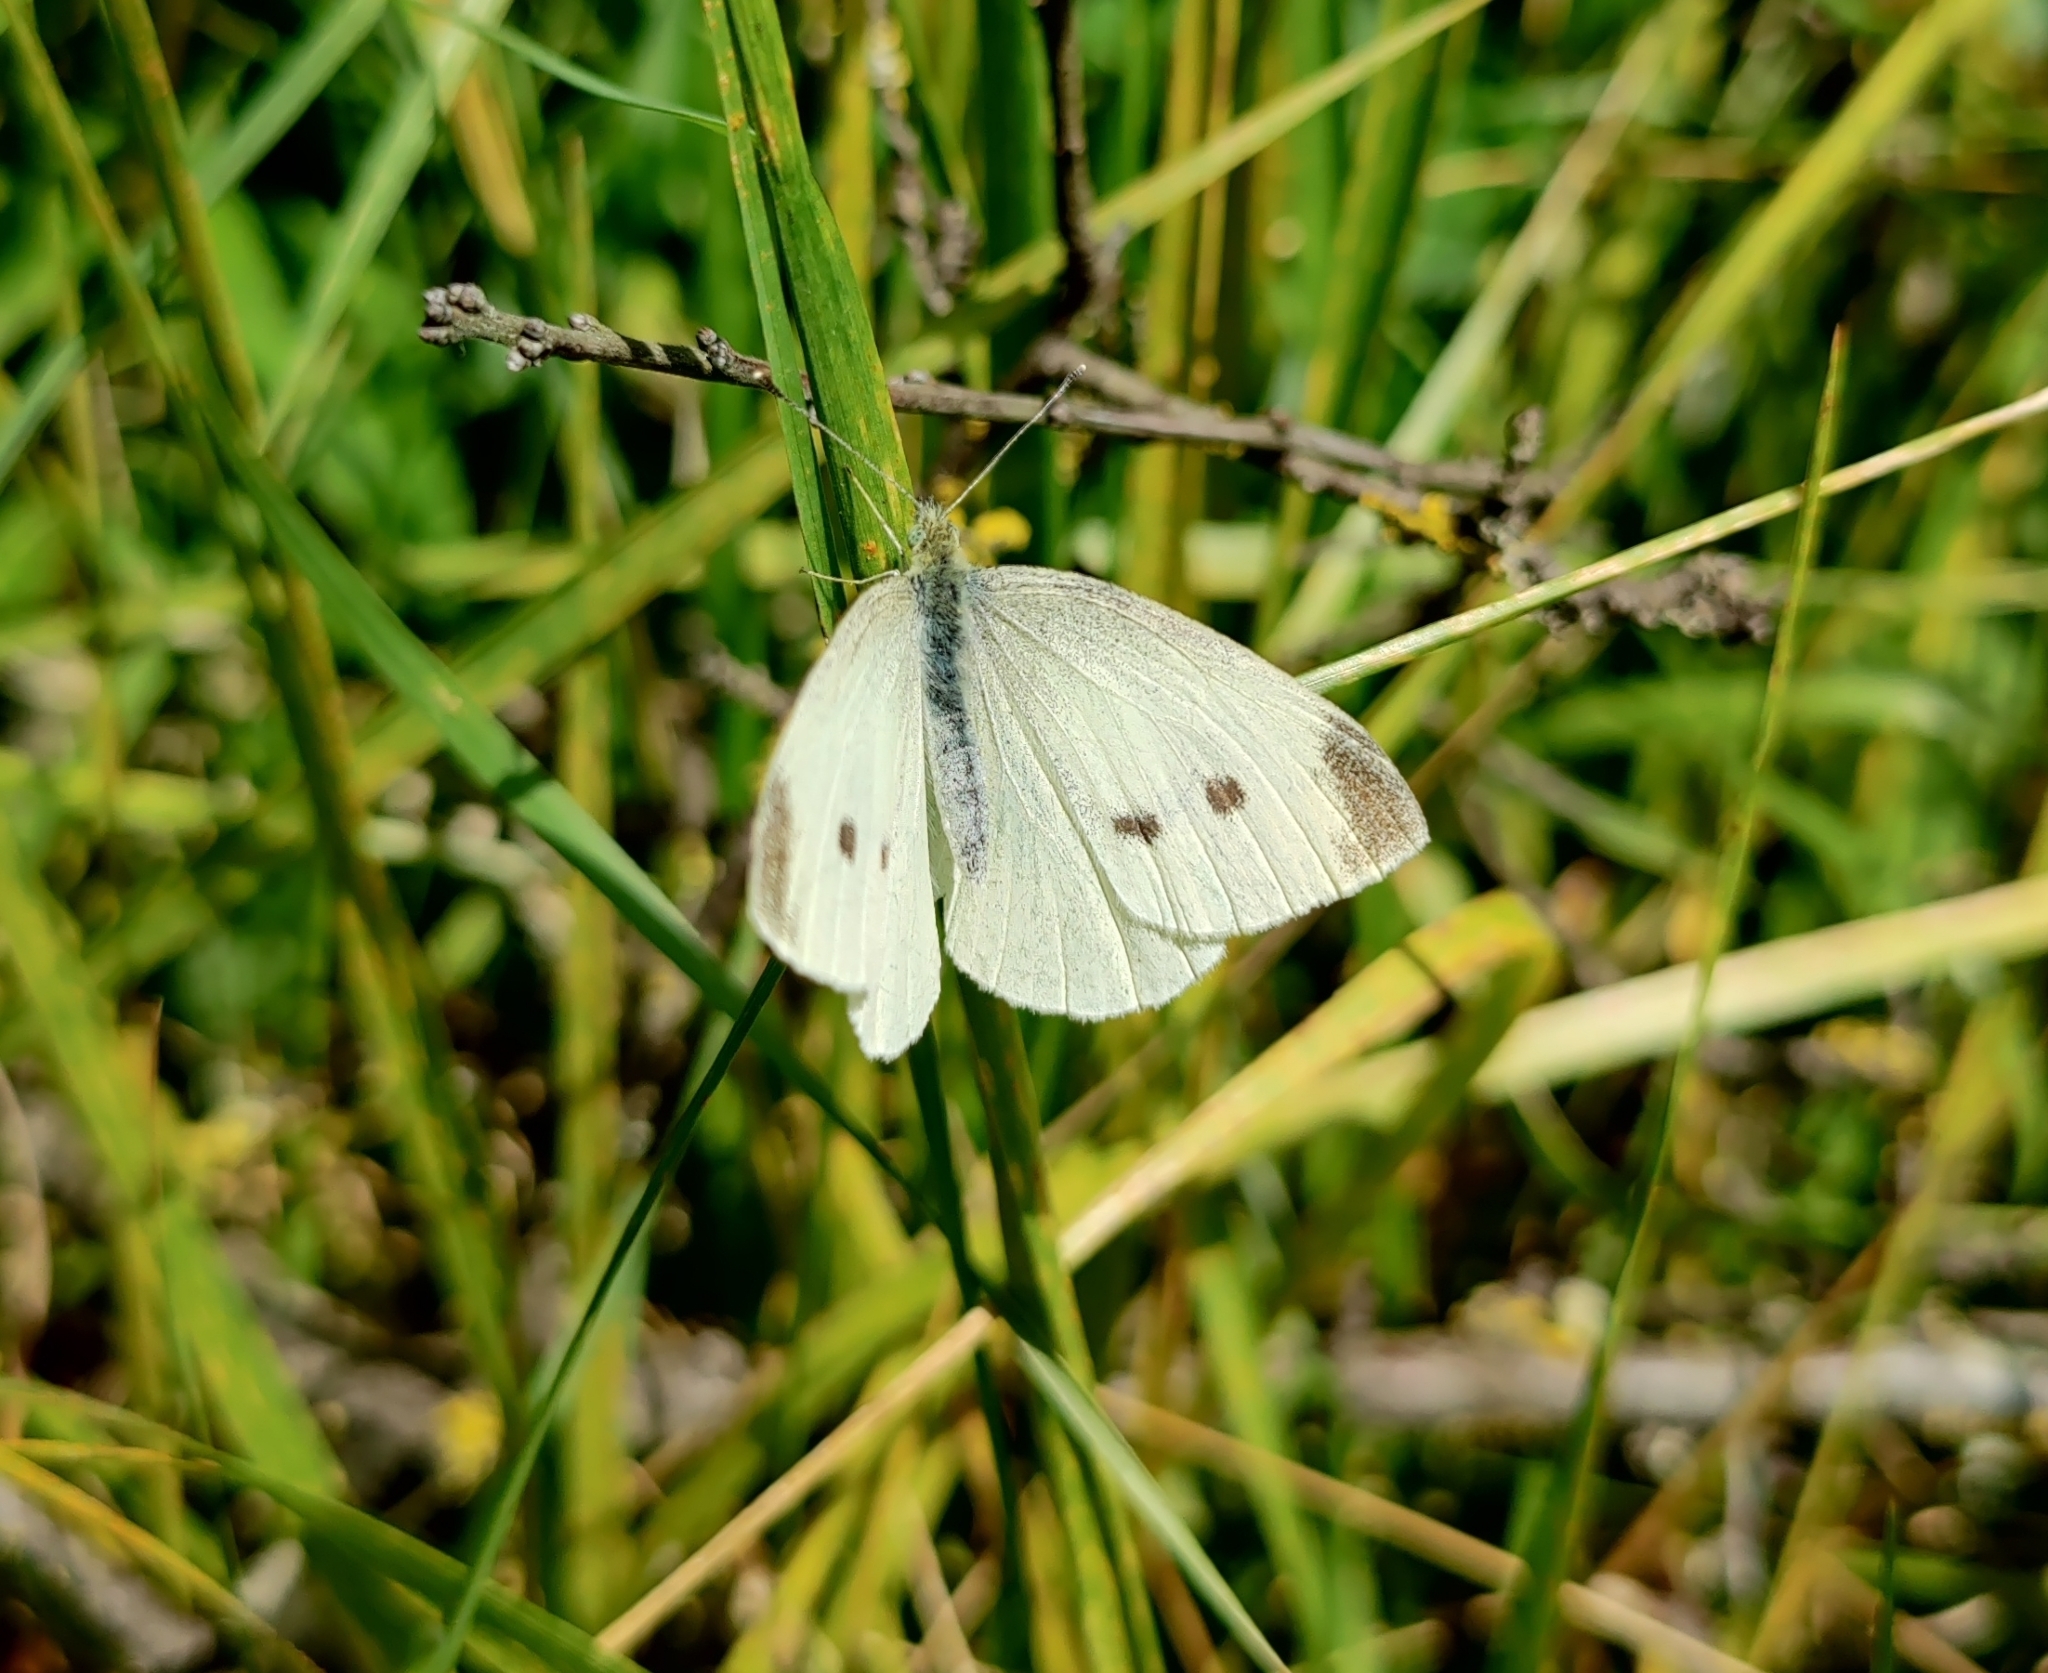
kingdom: Animalia
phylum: Arthropoda
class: Insecta
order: Lepidoptera
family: Pieridae
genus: Pieris
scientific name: Pieris rapae
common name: Small white
